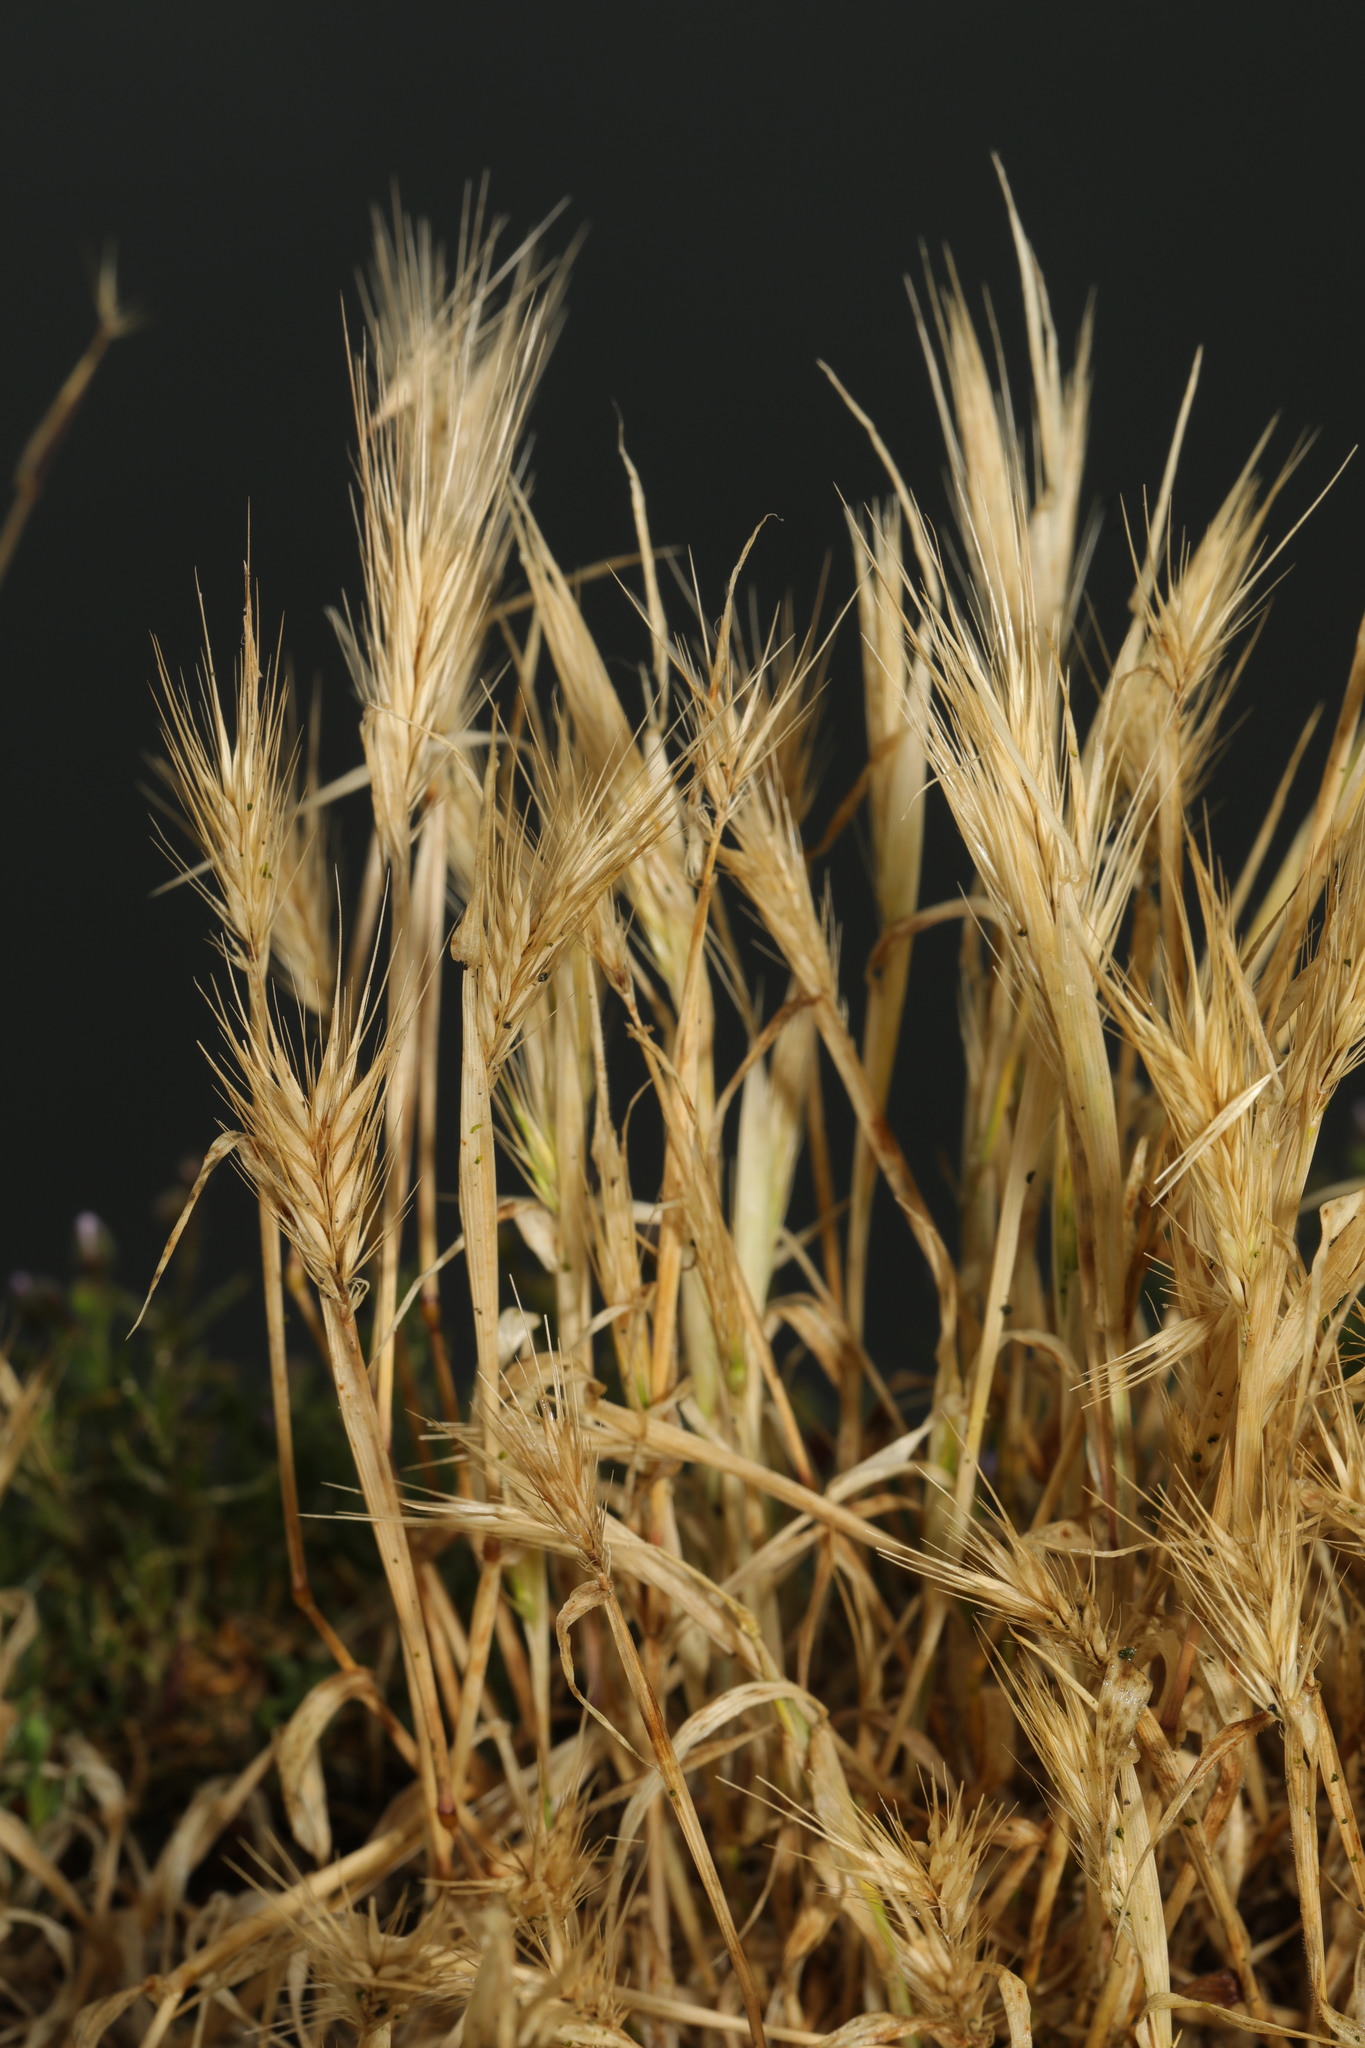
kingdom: Plantae
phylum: Tracheophyta
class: Liliopsida
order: Poales
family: Poaceae
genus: Hordeum
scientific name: Hordeum murinum
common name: Wall barley
